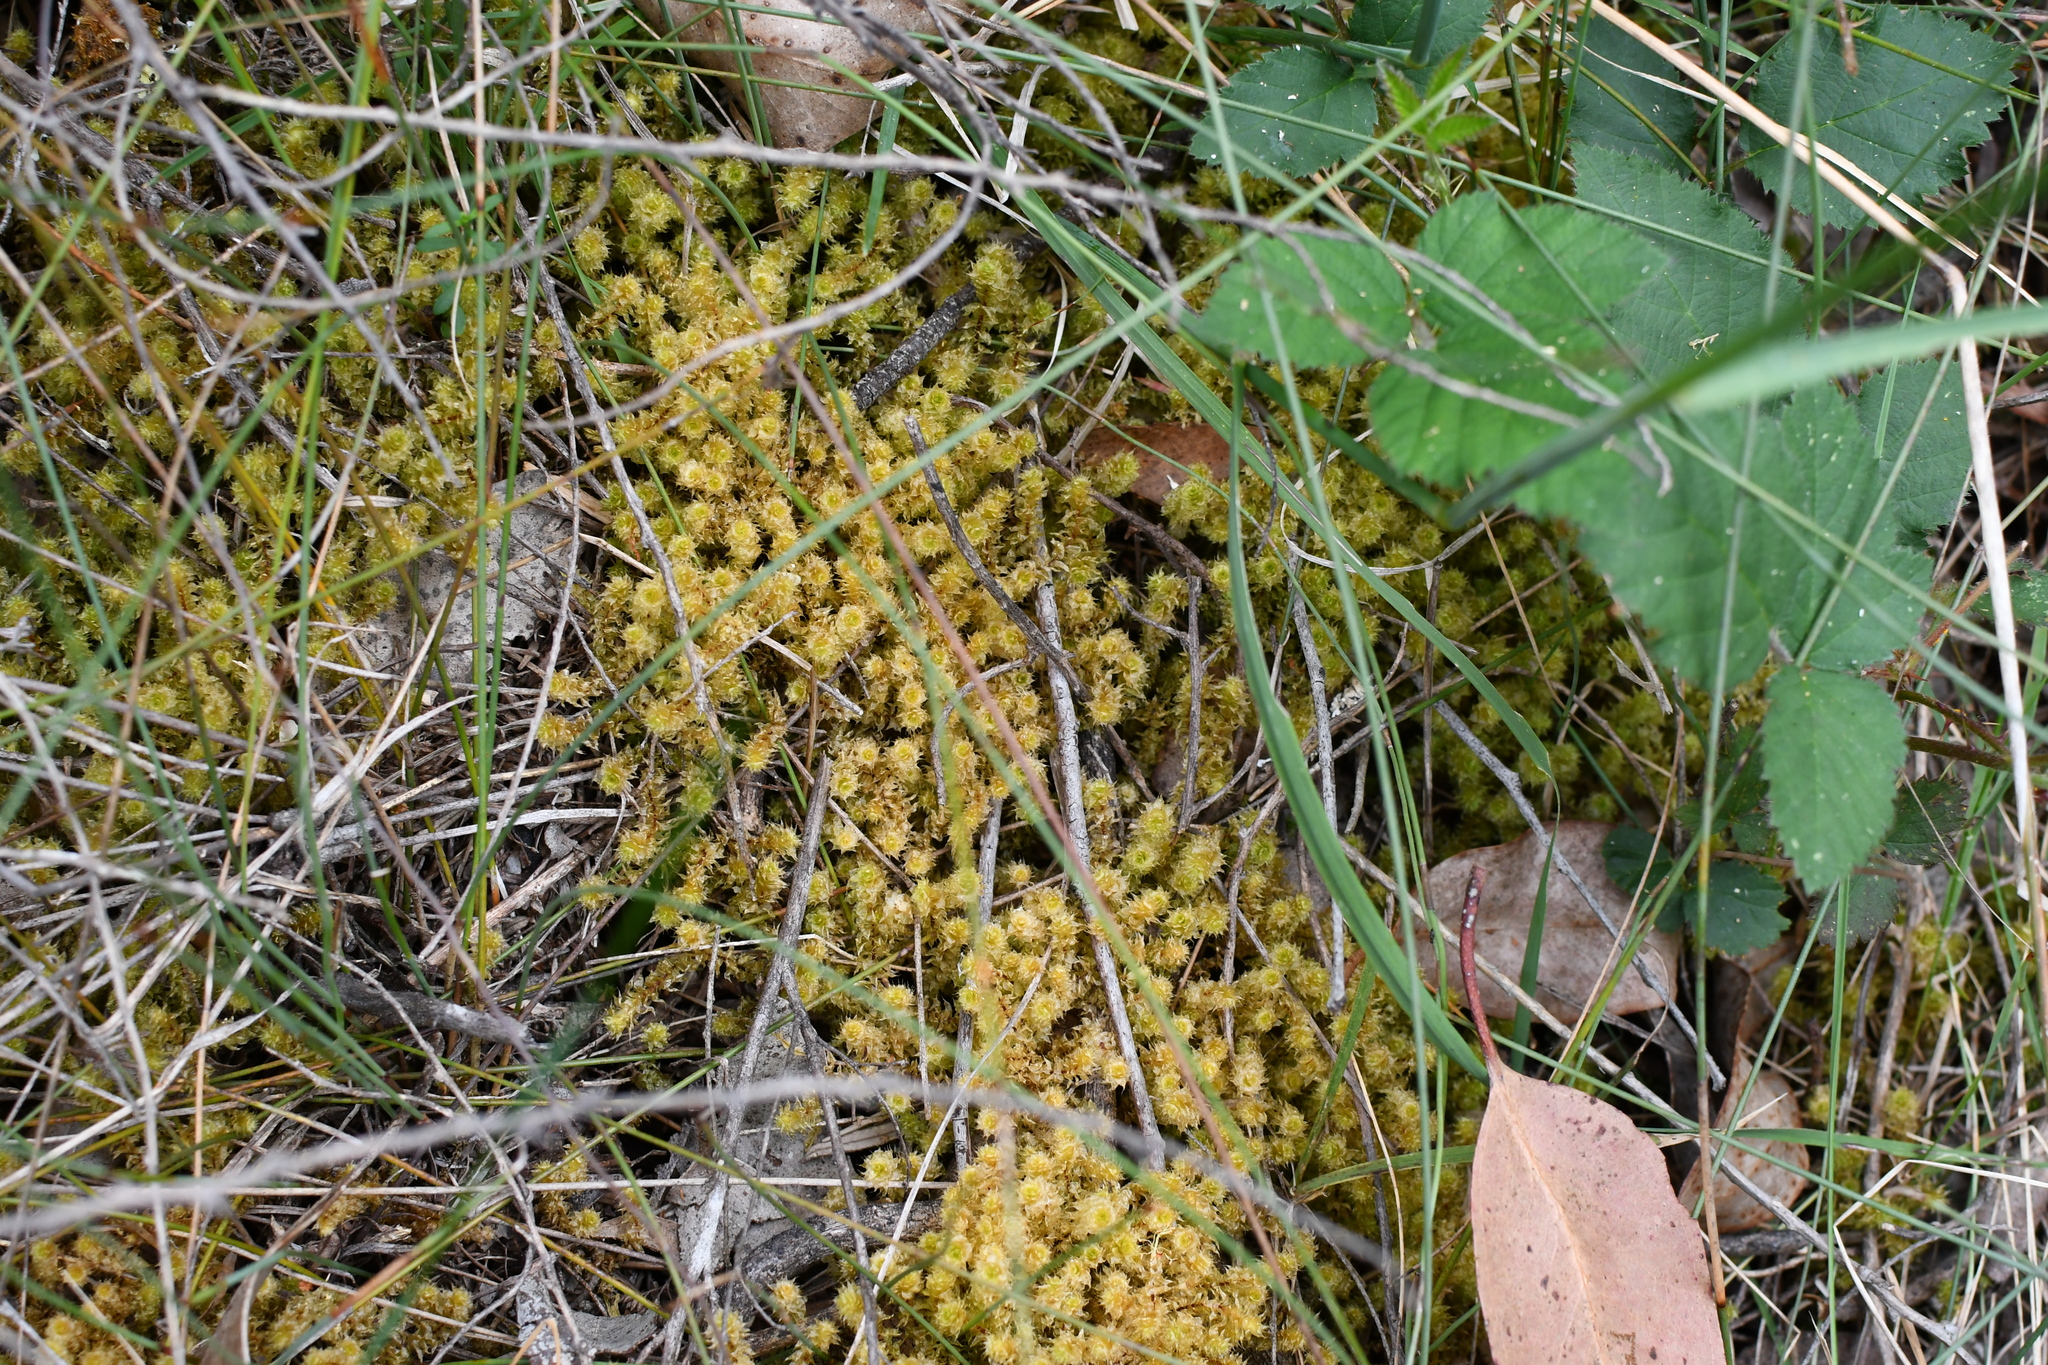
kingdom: Plantae
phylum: Bryophyta
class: Bryopsida
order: Ptychomniales
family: Ptychomniaceae
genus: Ptychomnion
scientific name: Ptychomnion aciculare
